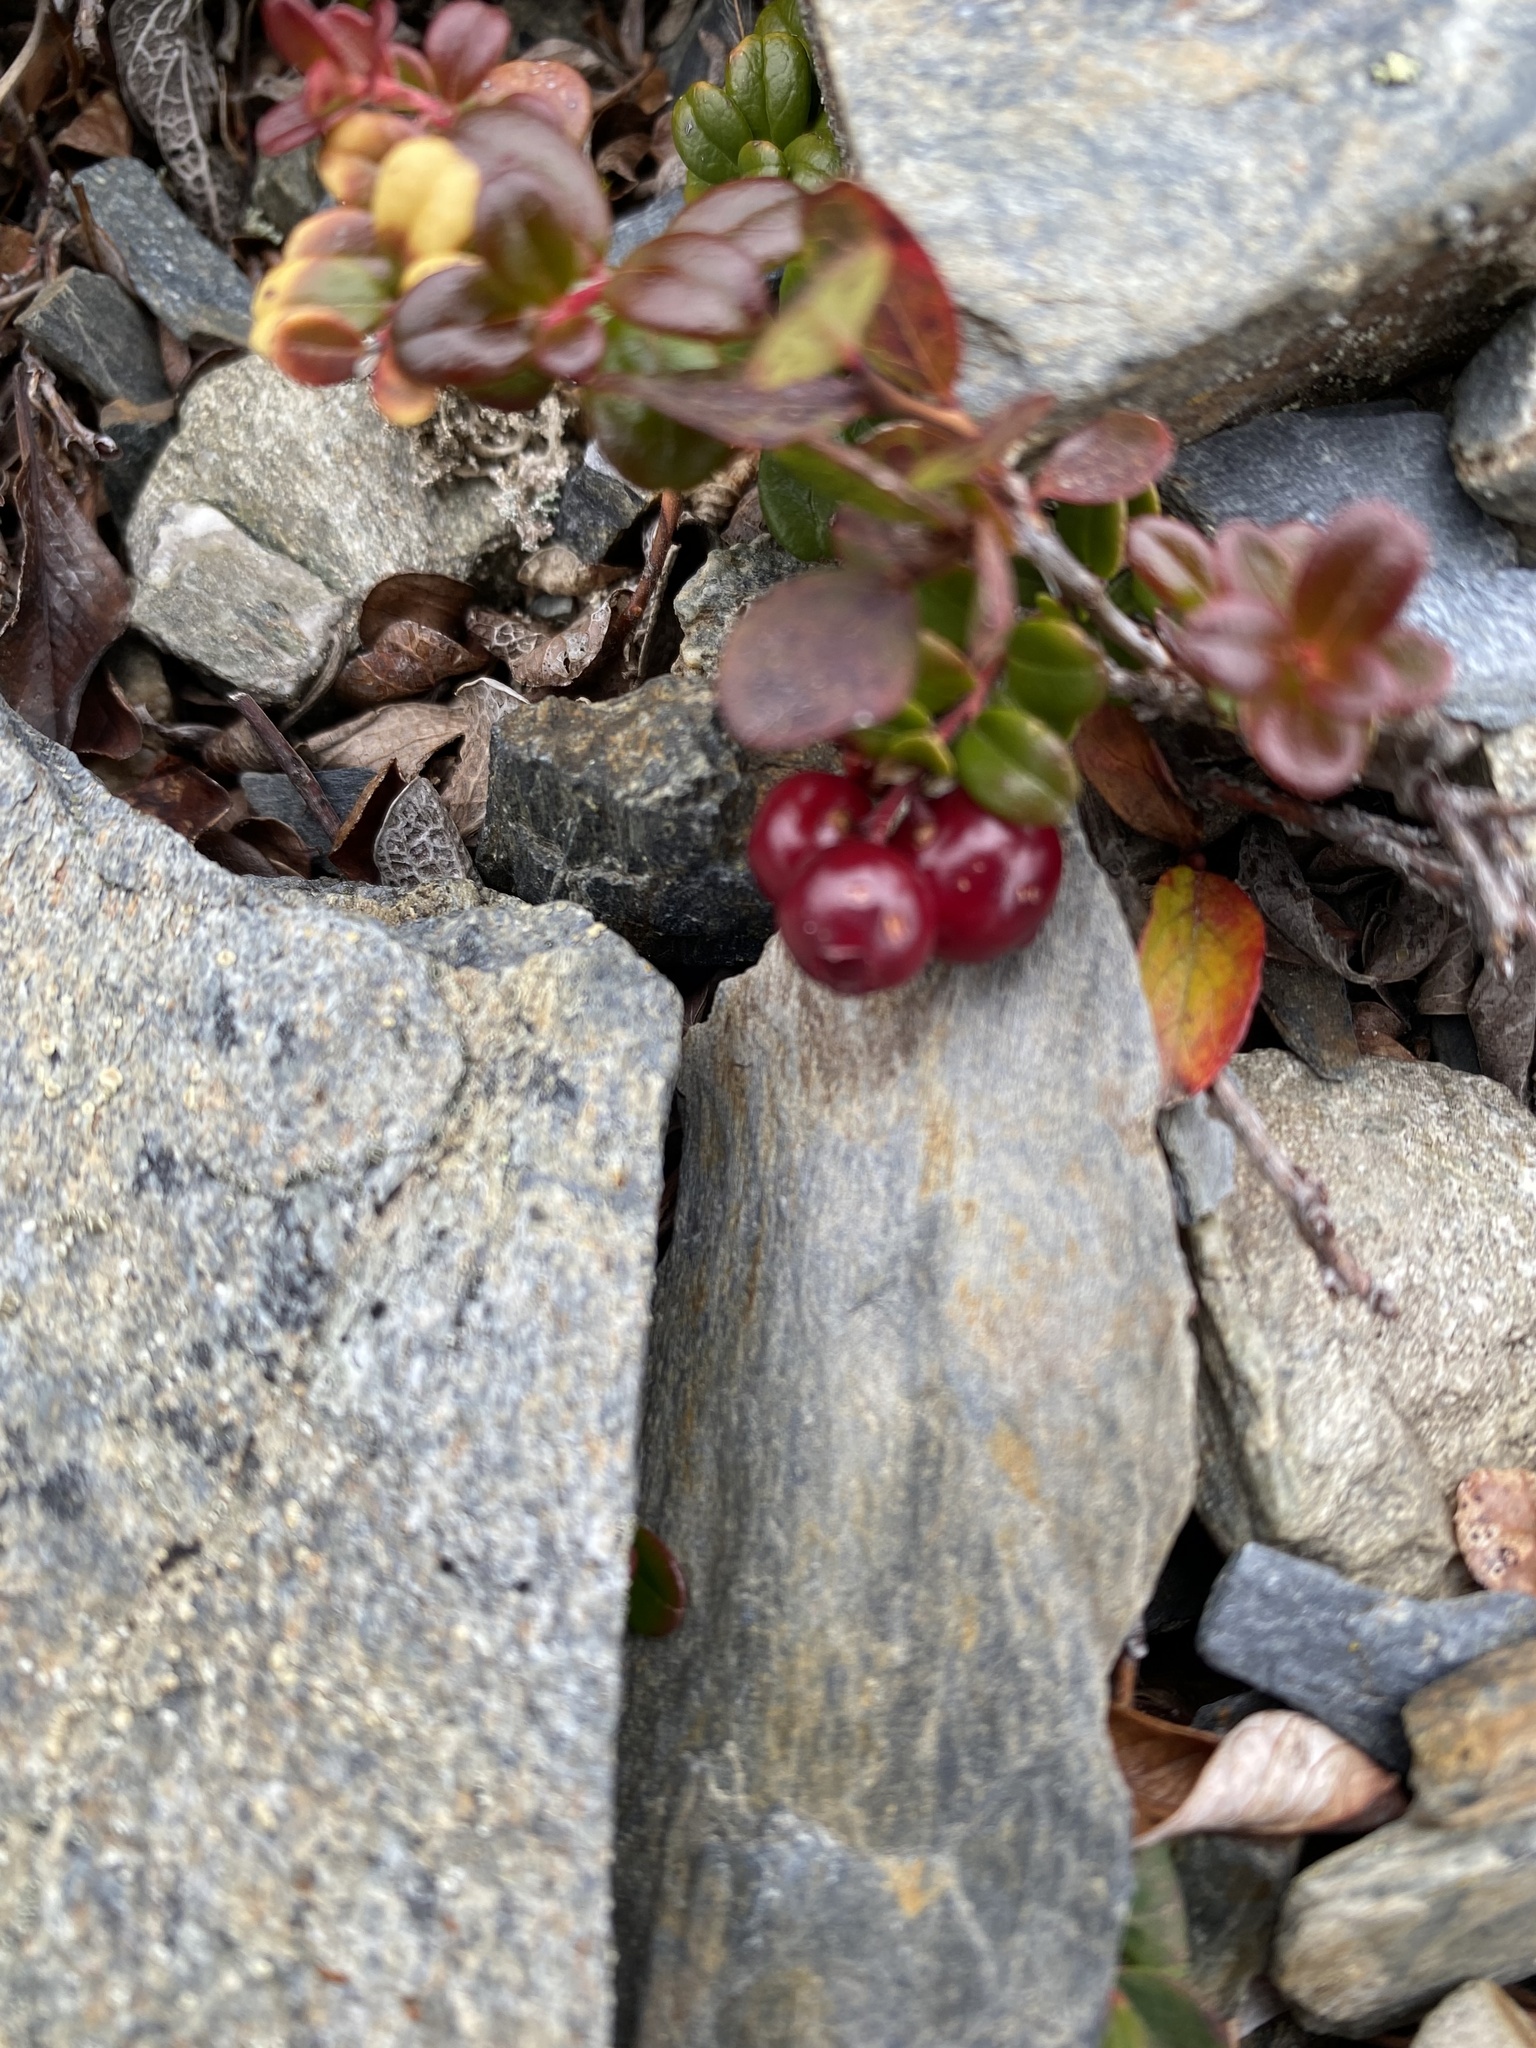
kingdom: Plantae
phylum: Tracheophyta
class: Magnoliopsida
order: Ericales
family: Ericaceae
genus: Vaccinium
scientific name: Vaccinium vitis-idaea
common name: Cowberry
